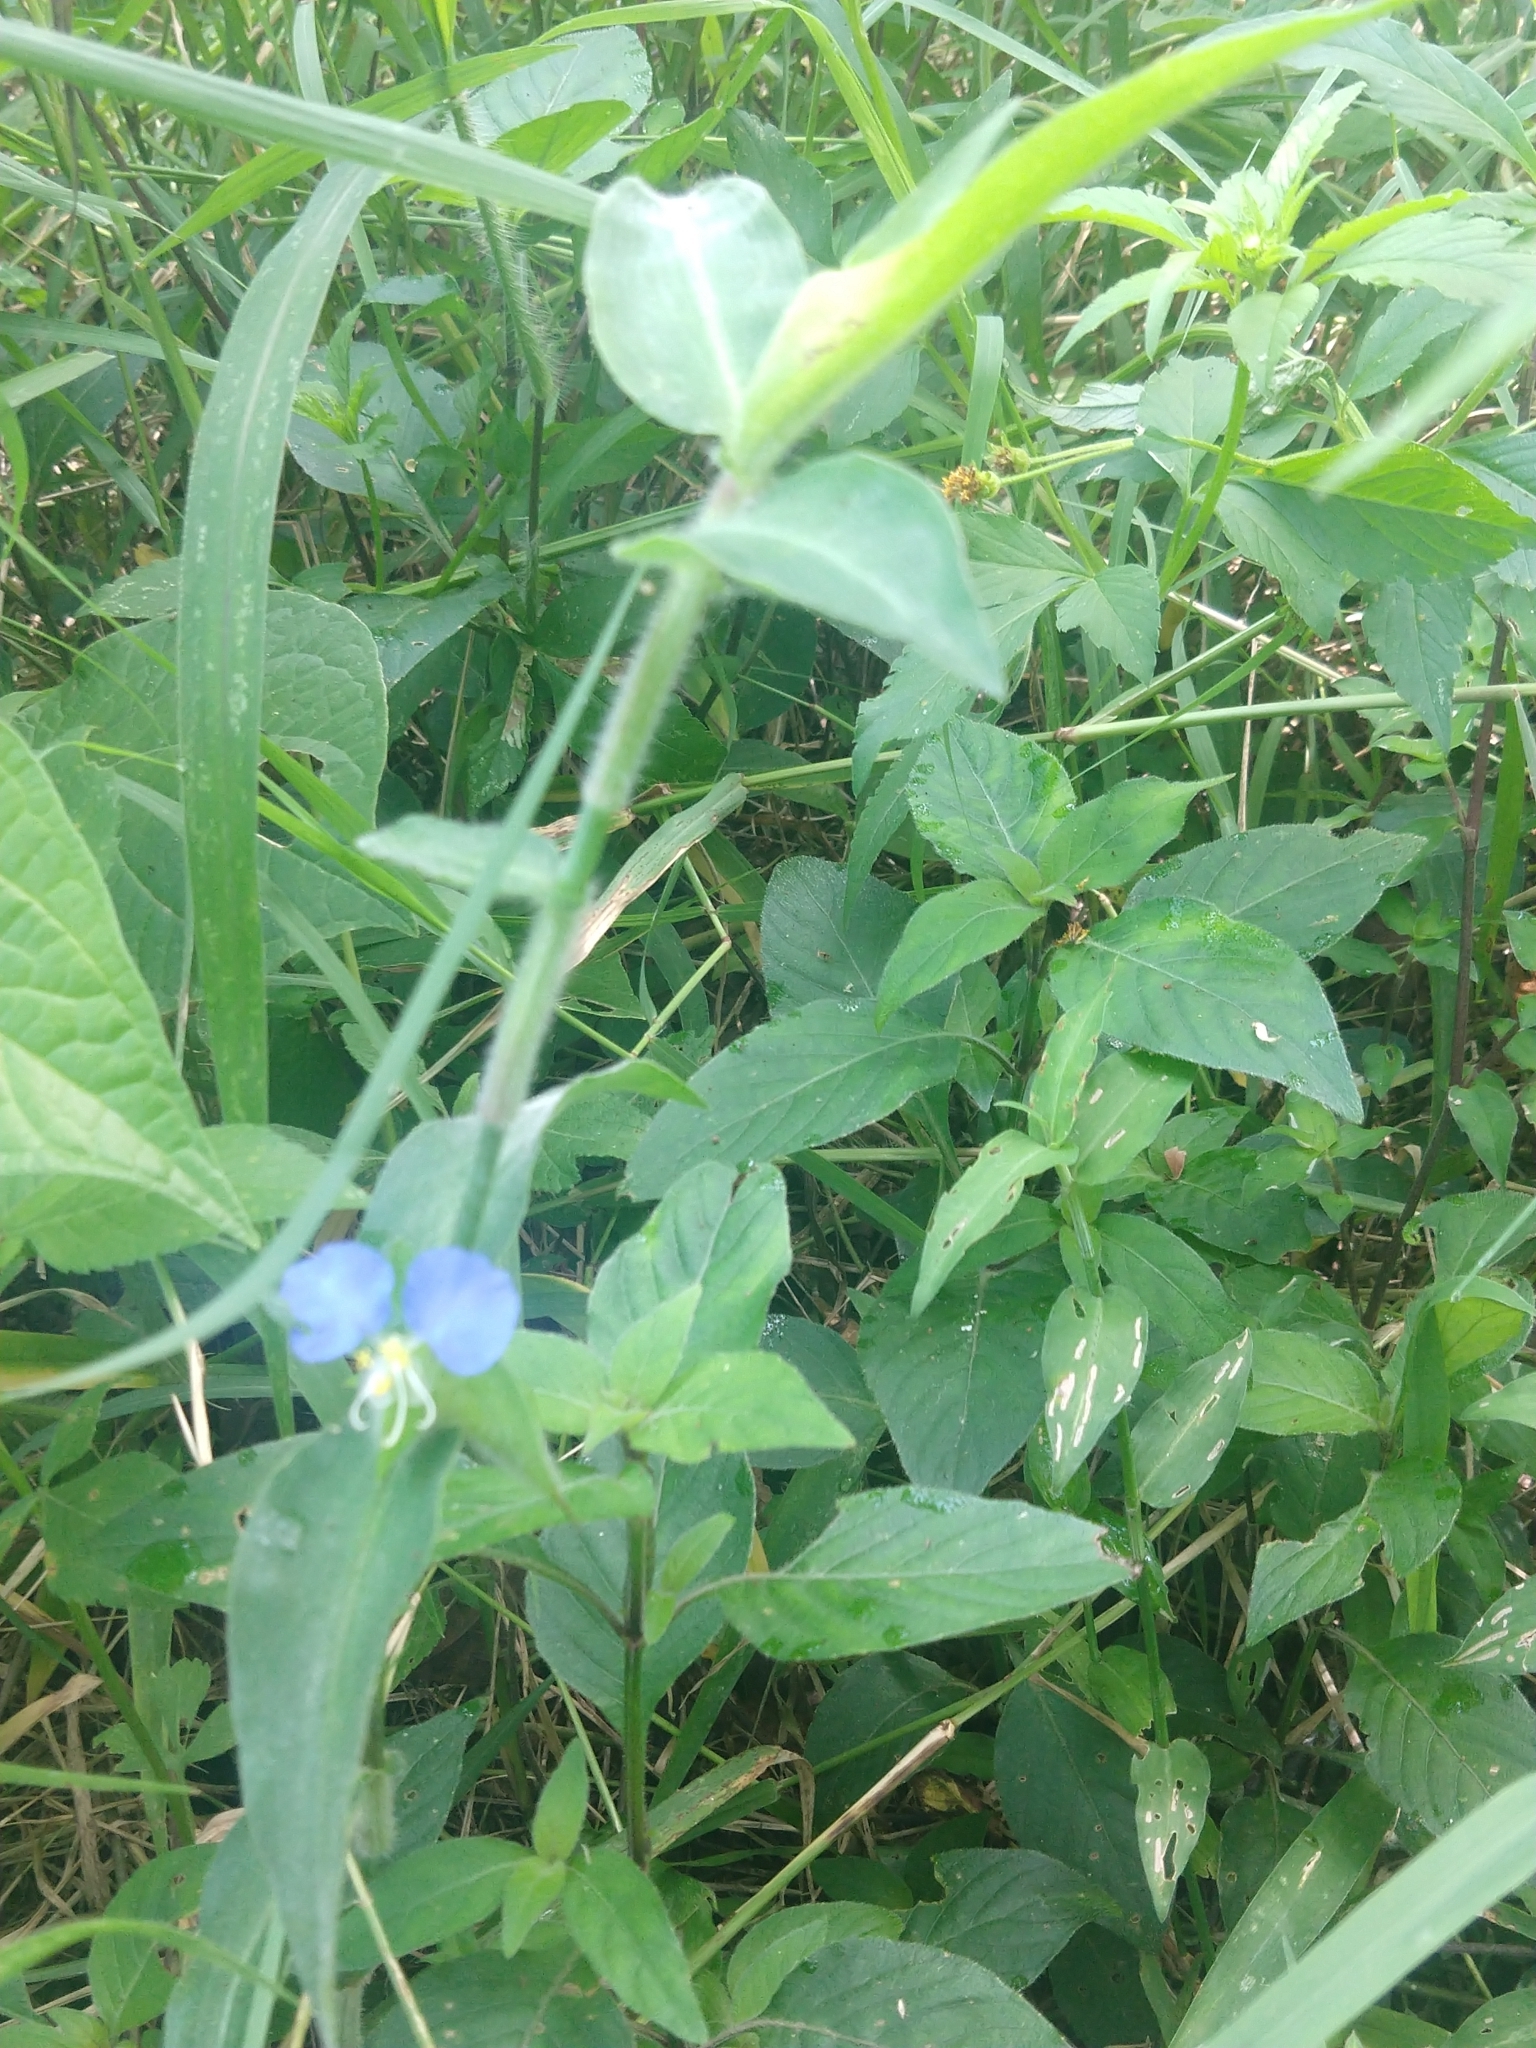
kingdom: Plantae
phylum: Tracheophyta
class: Liliopsida
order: Commelinales
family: Commelinaceae
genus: Commelina
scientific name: Commelina erecta
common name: Blousel blommetjie
